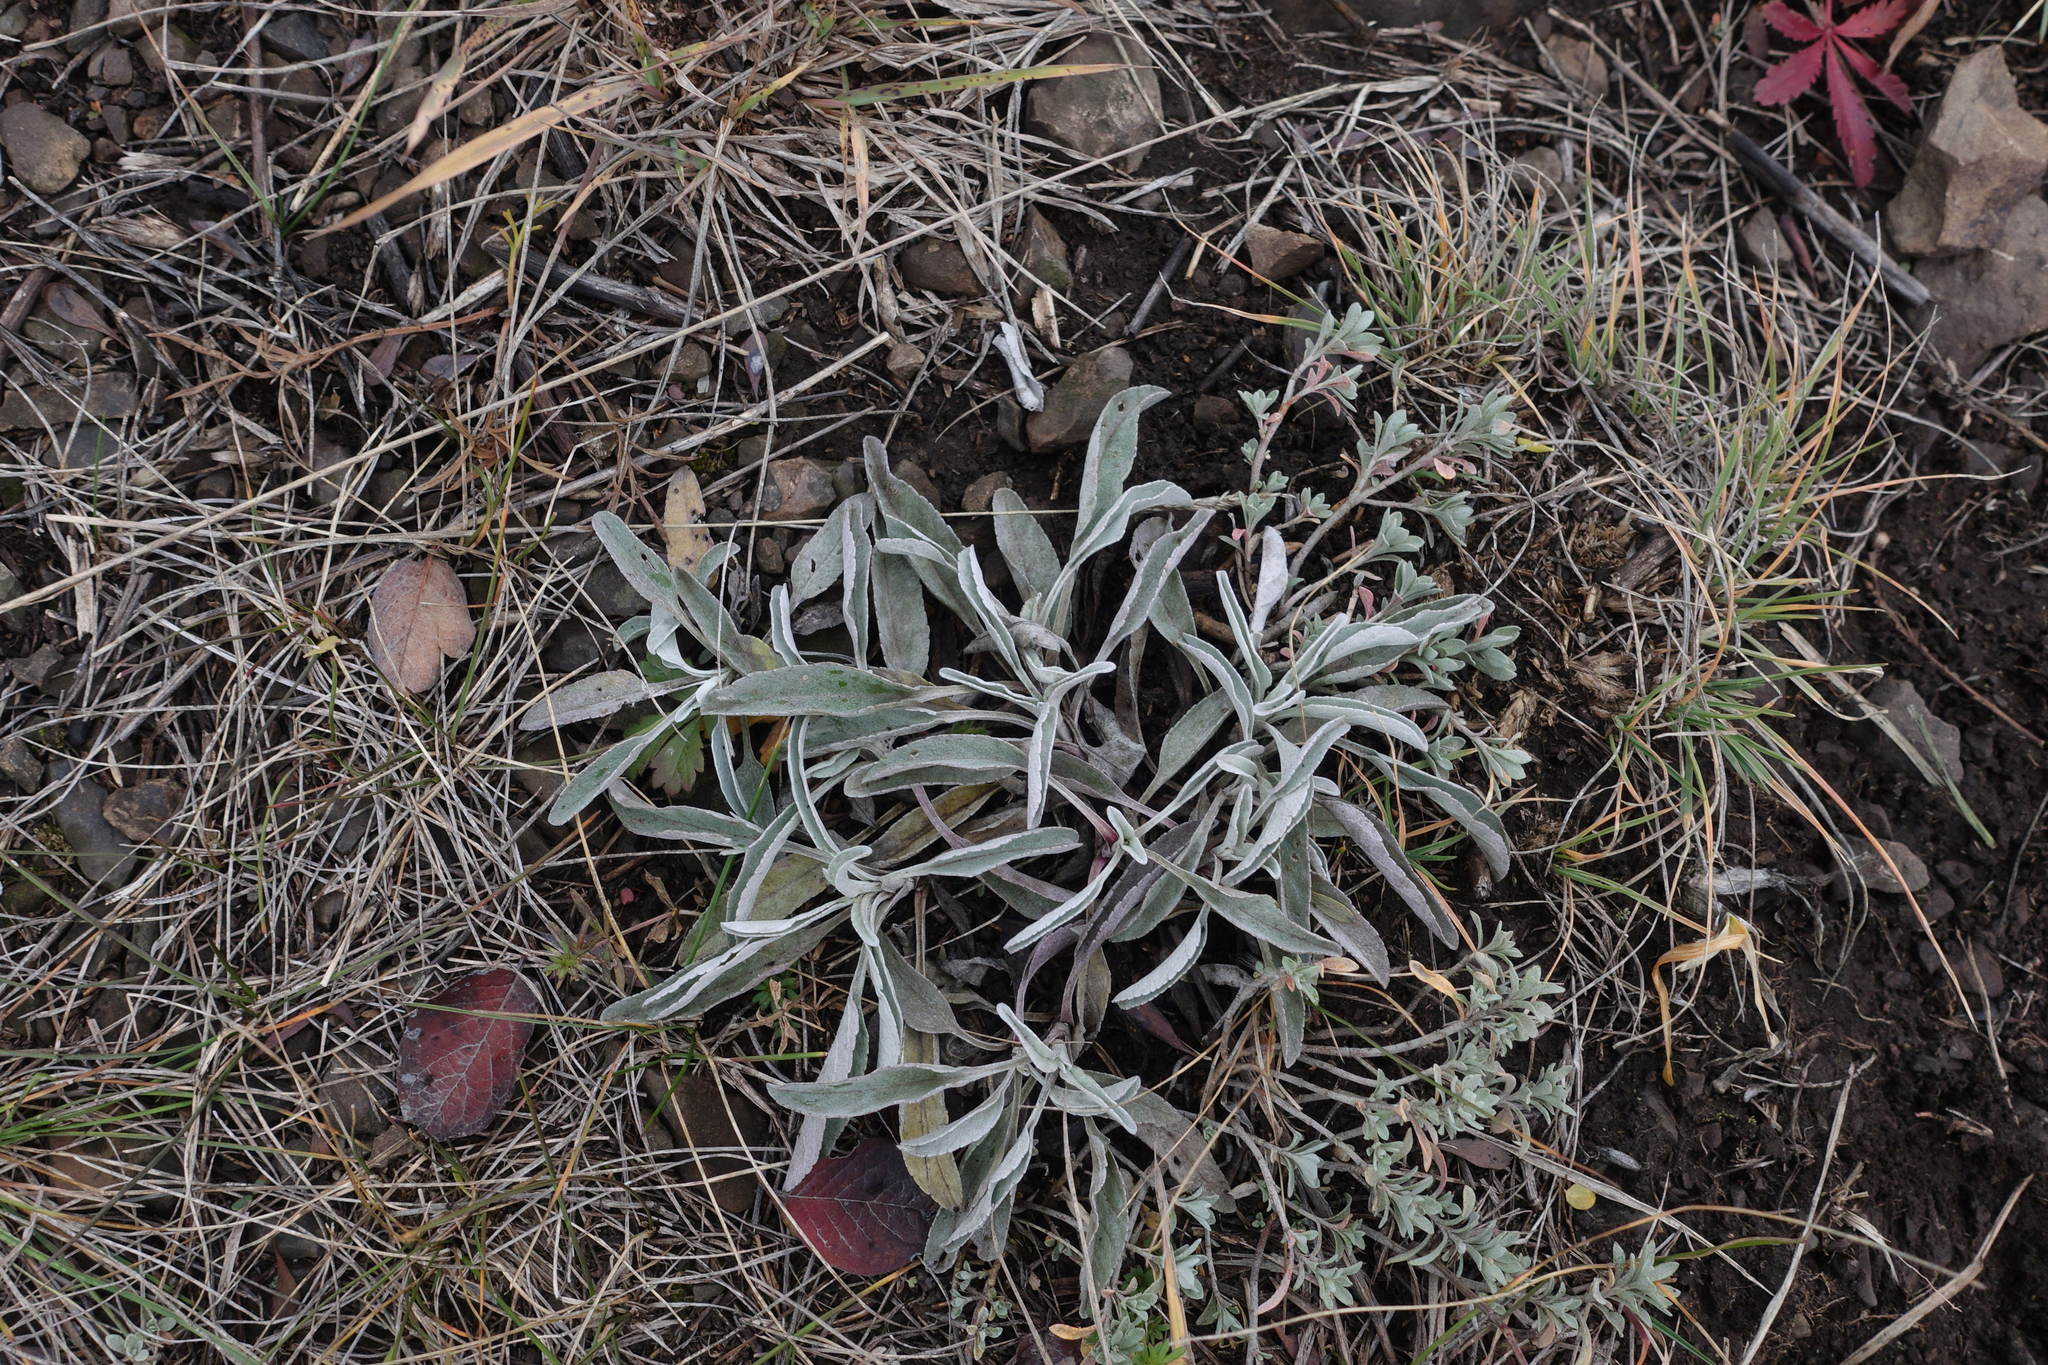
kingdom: Plantae
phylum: Tracheophyta
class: Magnoliopsida
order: Lamiales
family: Plantaginaceae
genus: Veronica
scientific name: Veronica incana
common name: Silver speedwell
